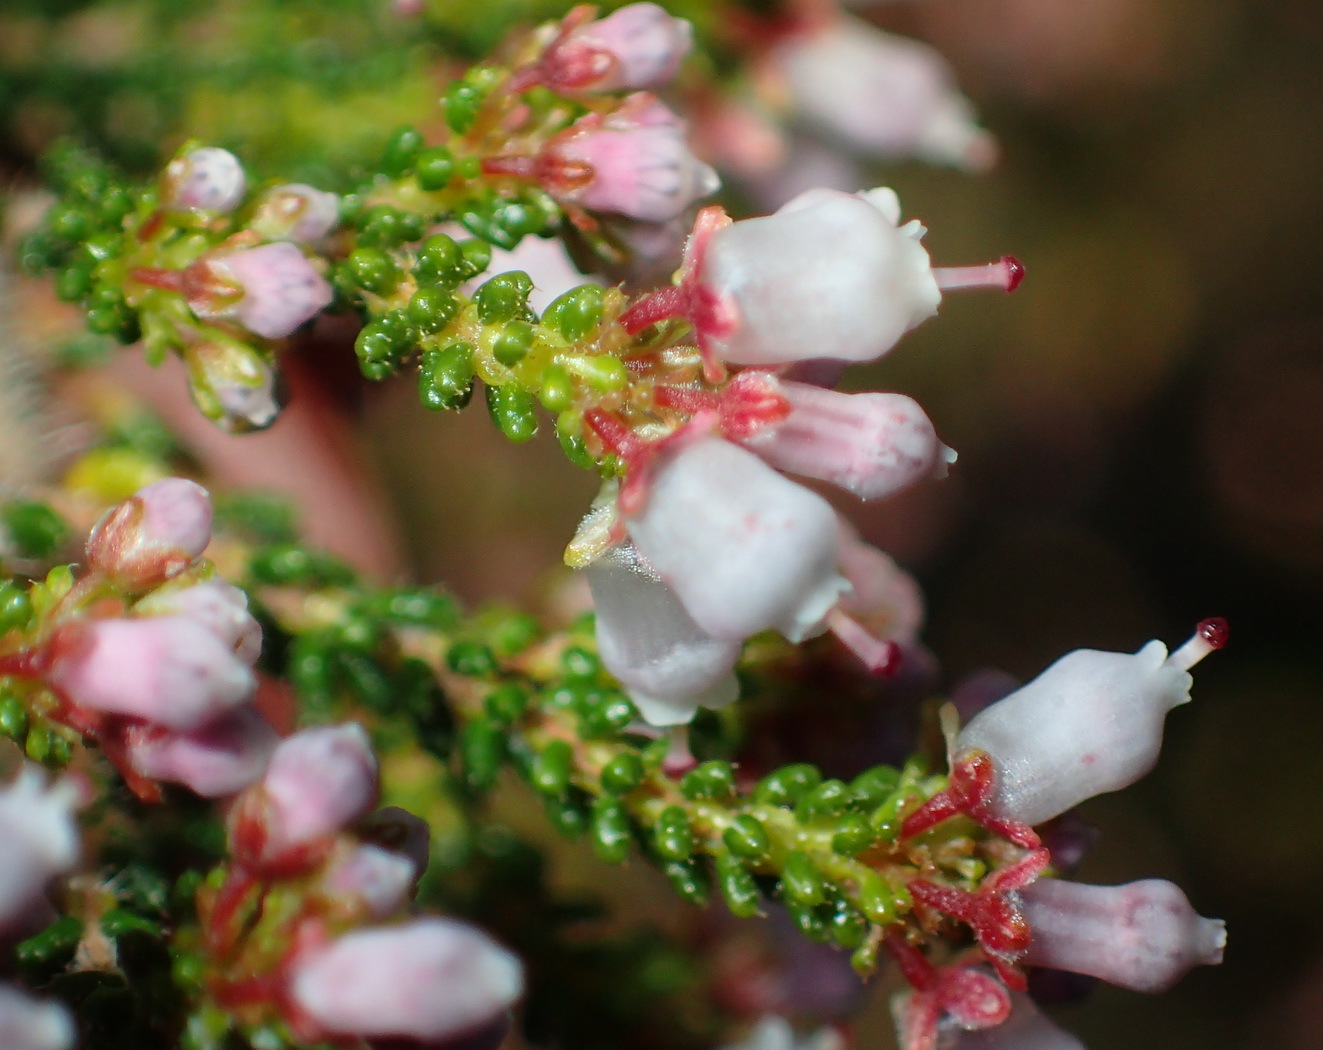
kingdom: Plantae
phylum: Tracheophyta
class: Magnoliopsida
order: Ericales
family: Ericaceae
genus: Erica
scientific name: Erica scabriuscula
